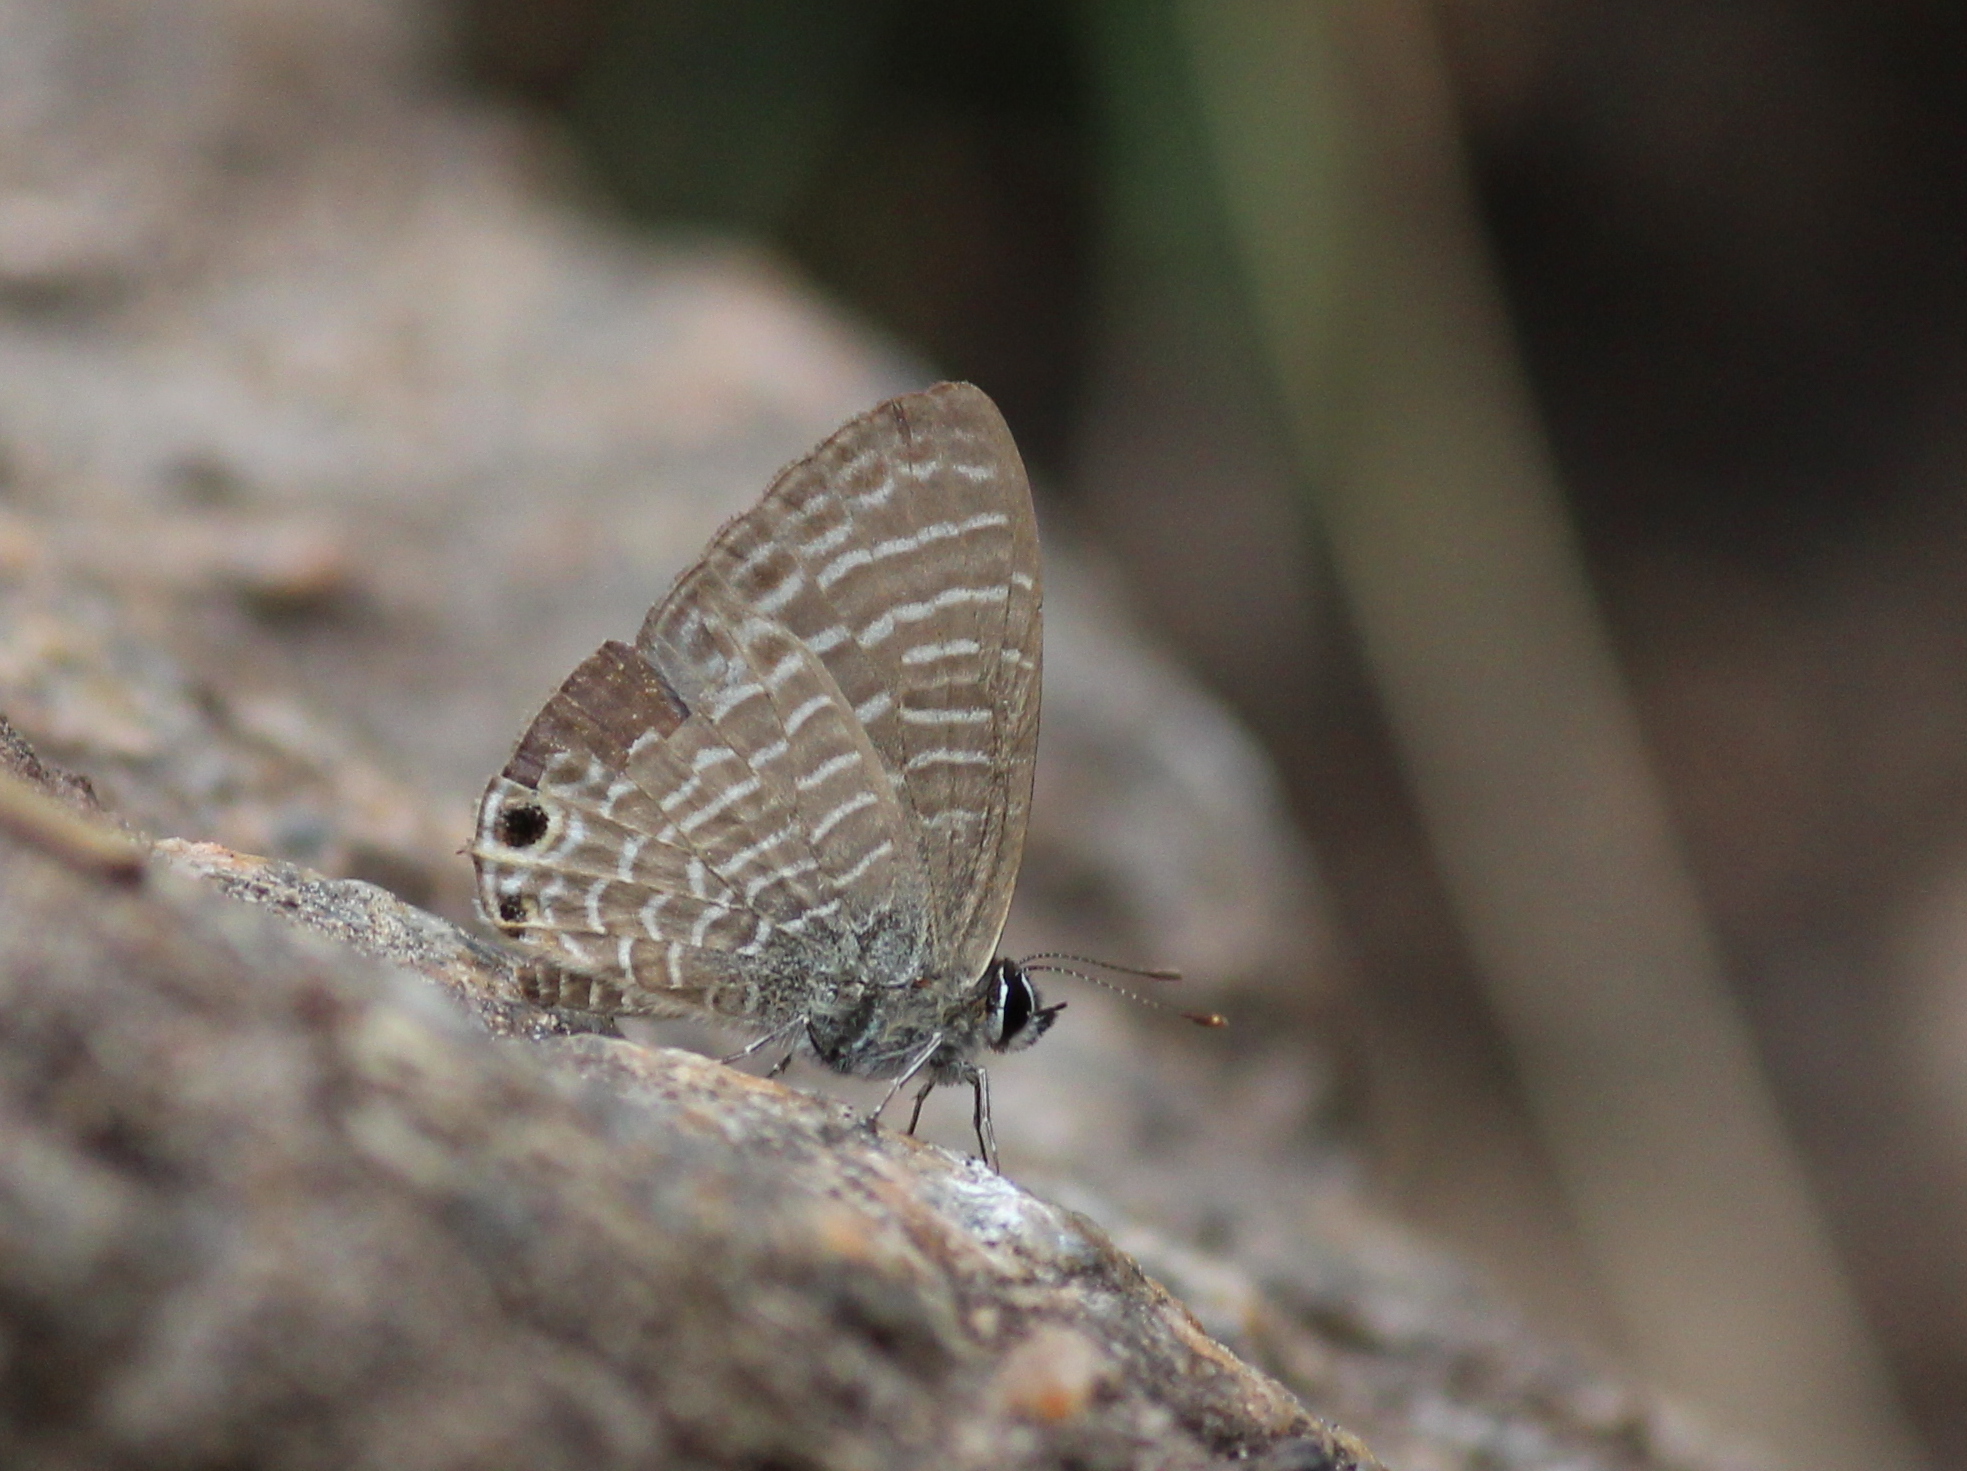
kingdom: Animalia
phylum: Arthropoda
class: Insecta
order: Lepidoptera
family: Lycaenidae
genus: Nacaduba
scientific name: Nacaduba kurava
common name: Transparent 6-line blue
